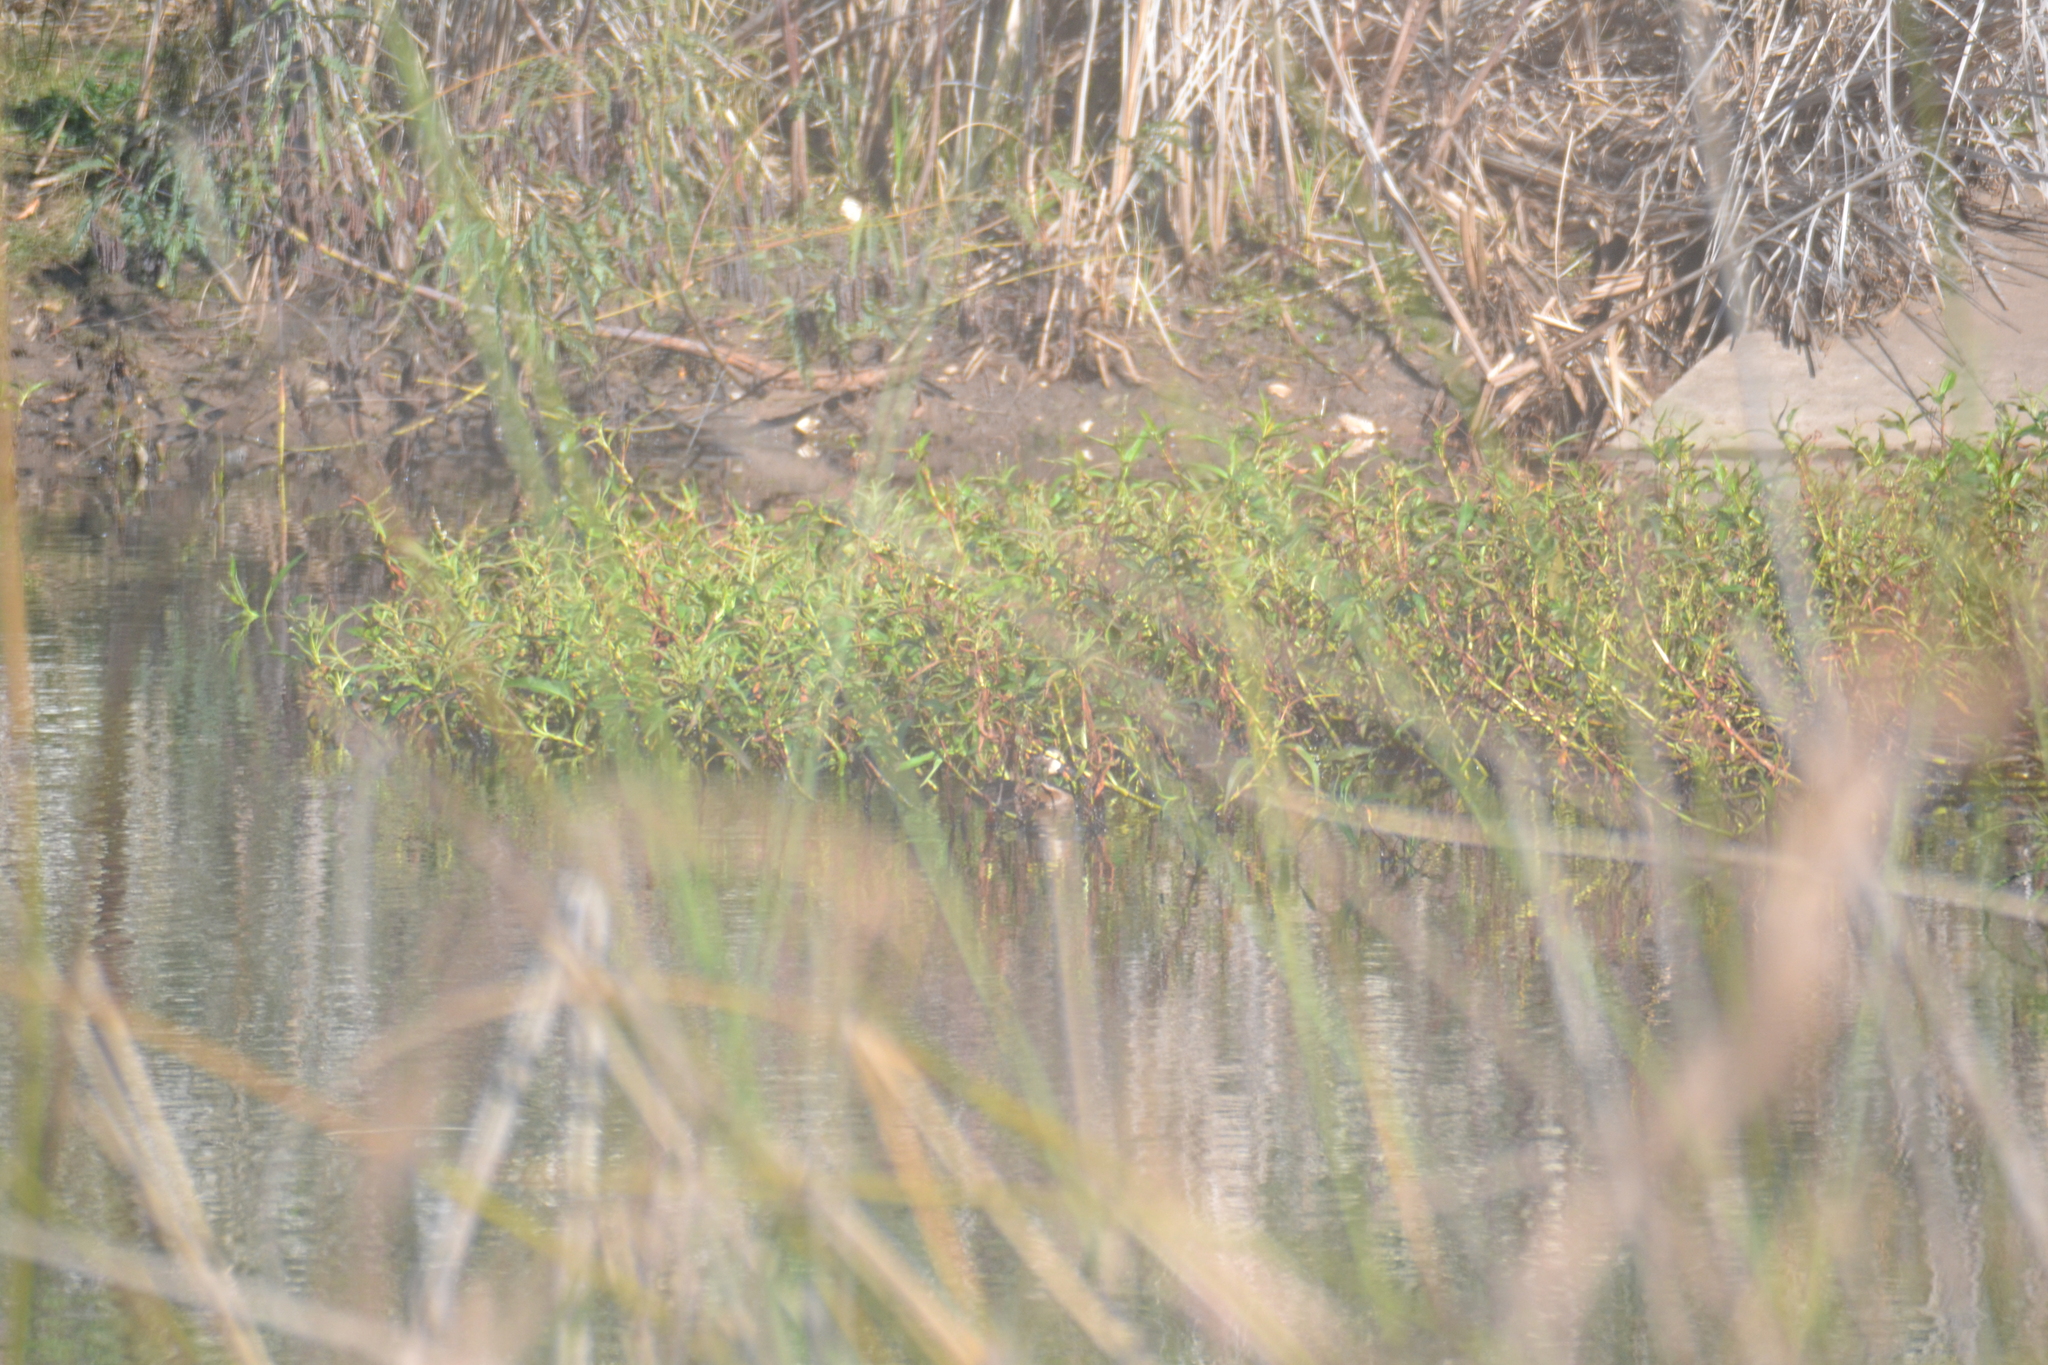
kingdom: Animalia
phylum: Chordata
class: Aves
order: Anseriformes
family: Anatidae
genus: Aythya
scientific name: Aythya collaris
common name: Ring-necked duck
